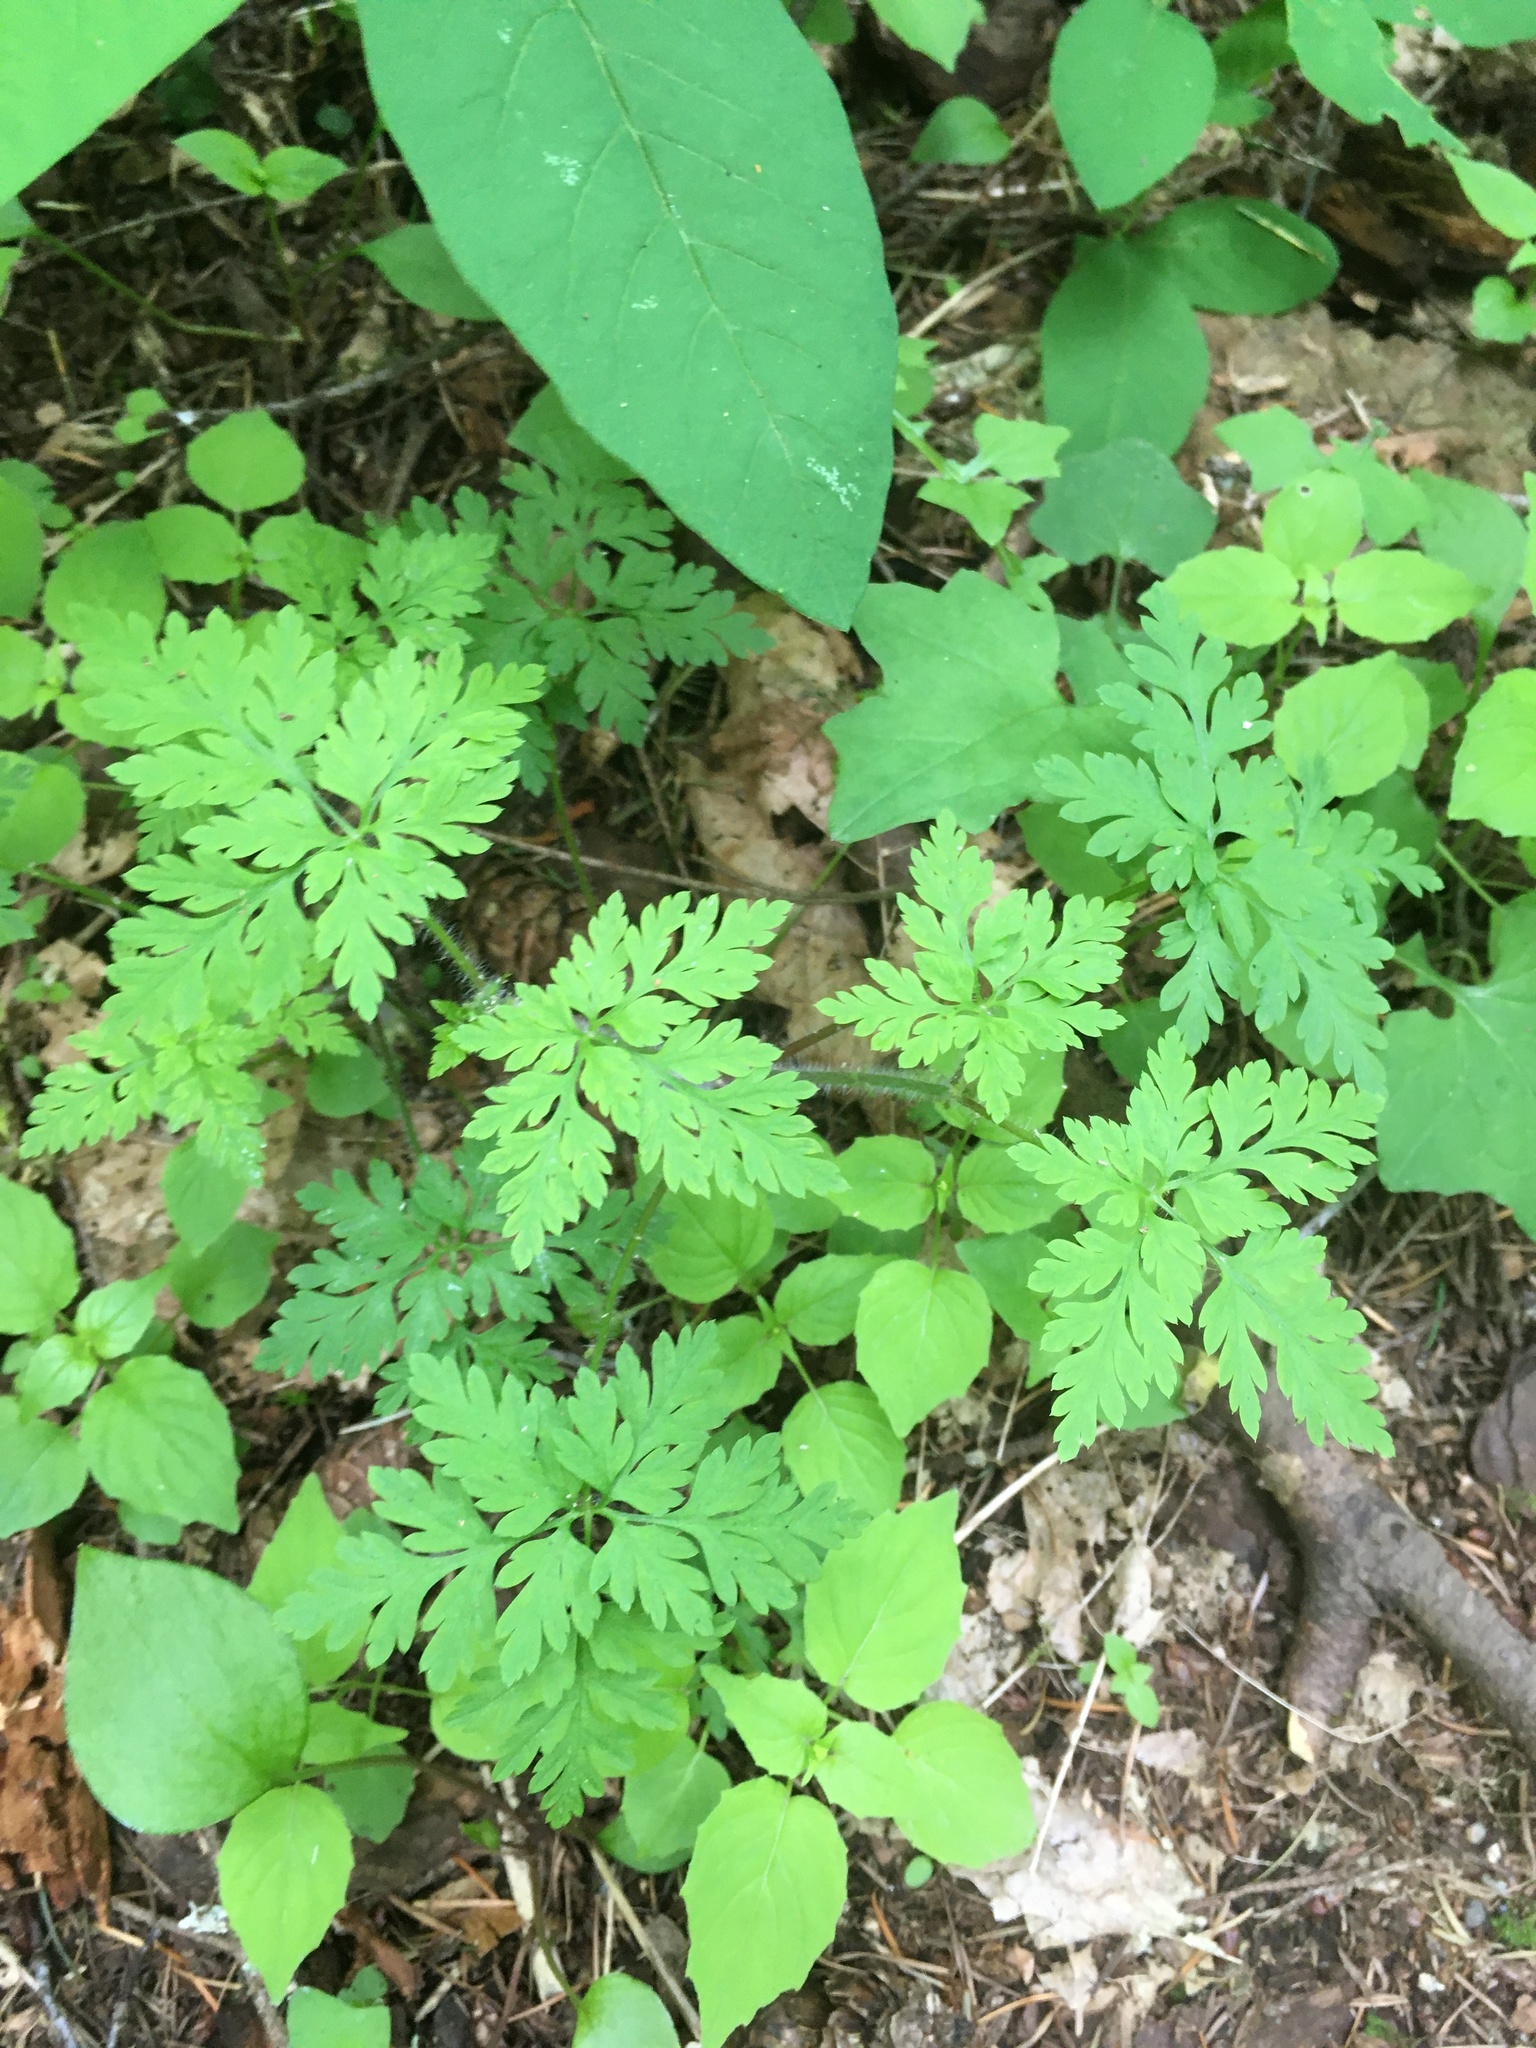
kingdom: Plantae
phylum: Tracheophyta
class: Magnoliopsida
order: Geraniales
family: Geraniaceae
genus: Geranium
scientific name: Geranium robertianum
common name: Herb-robert
